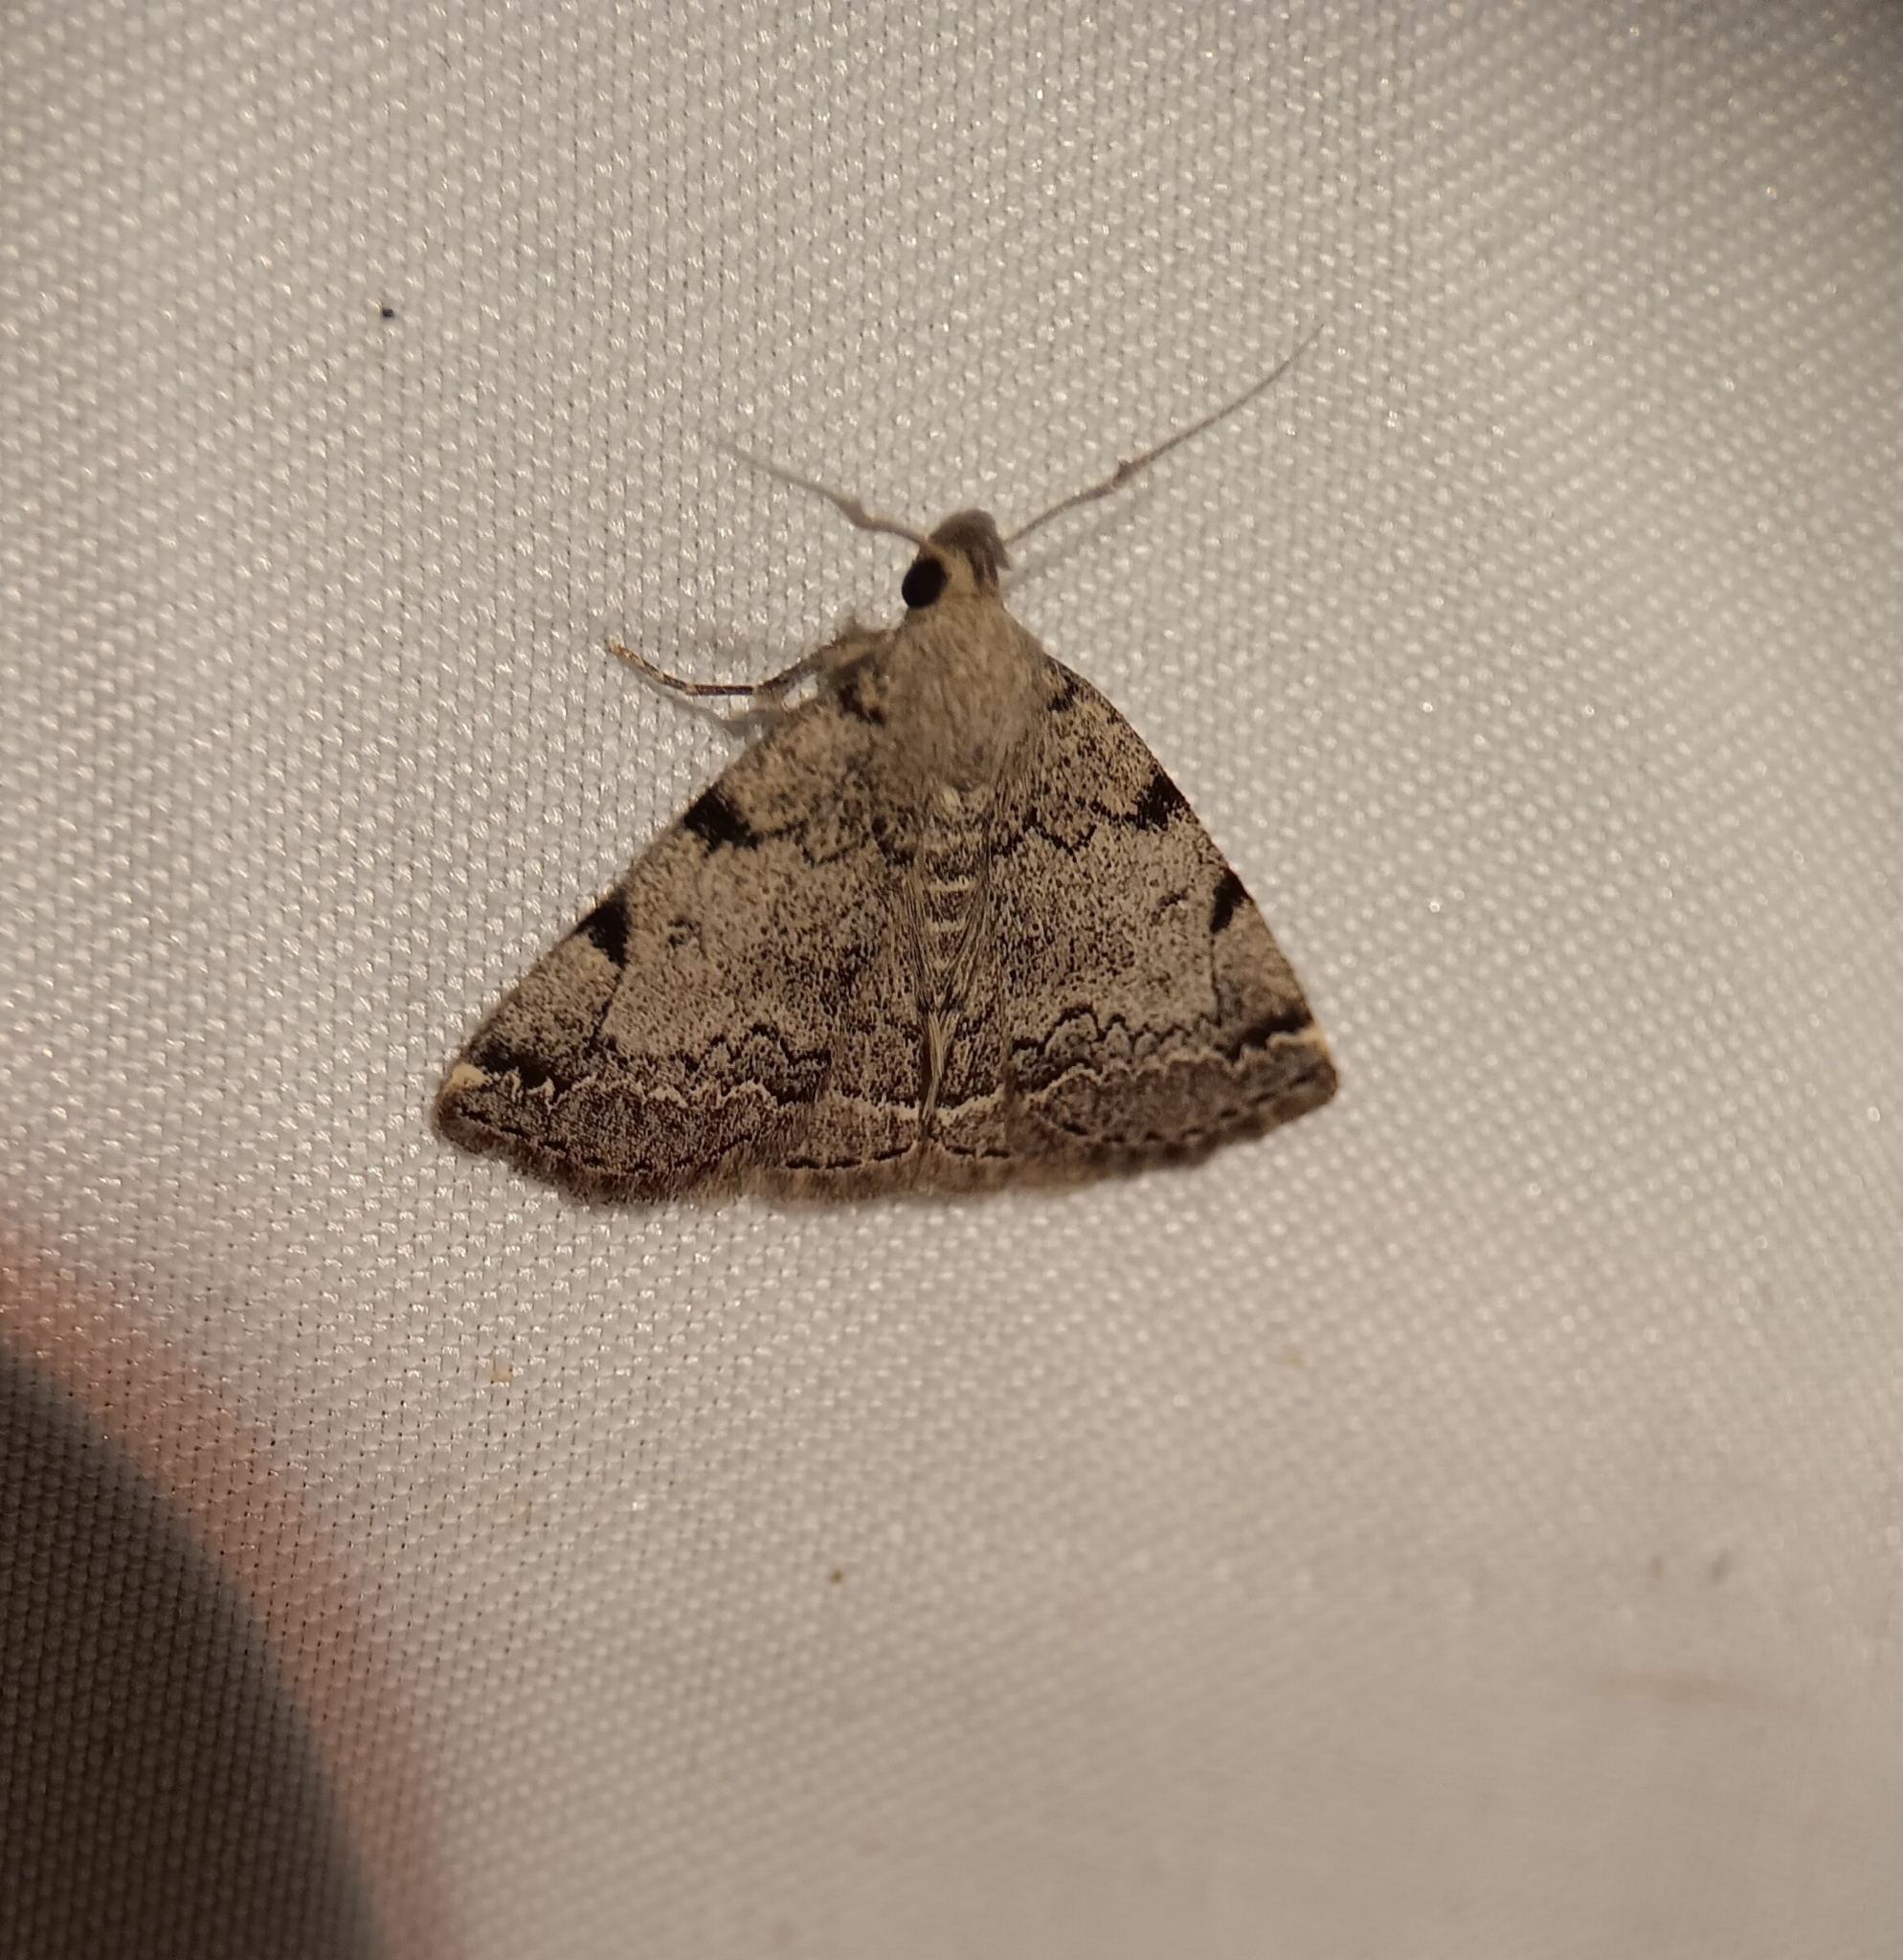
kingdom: Animalia
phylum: Arthropoda
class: Insecta
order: Lepidoptera
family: Erebidae
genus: Zanclognatha
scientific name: Zanclognatha theralis
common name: Flagged fan-foot
